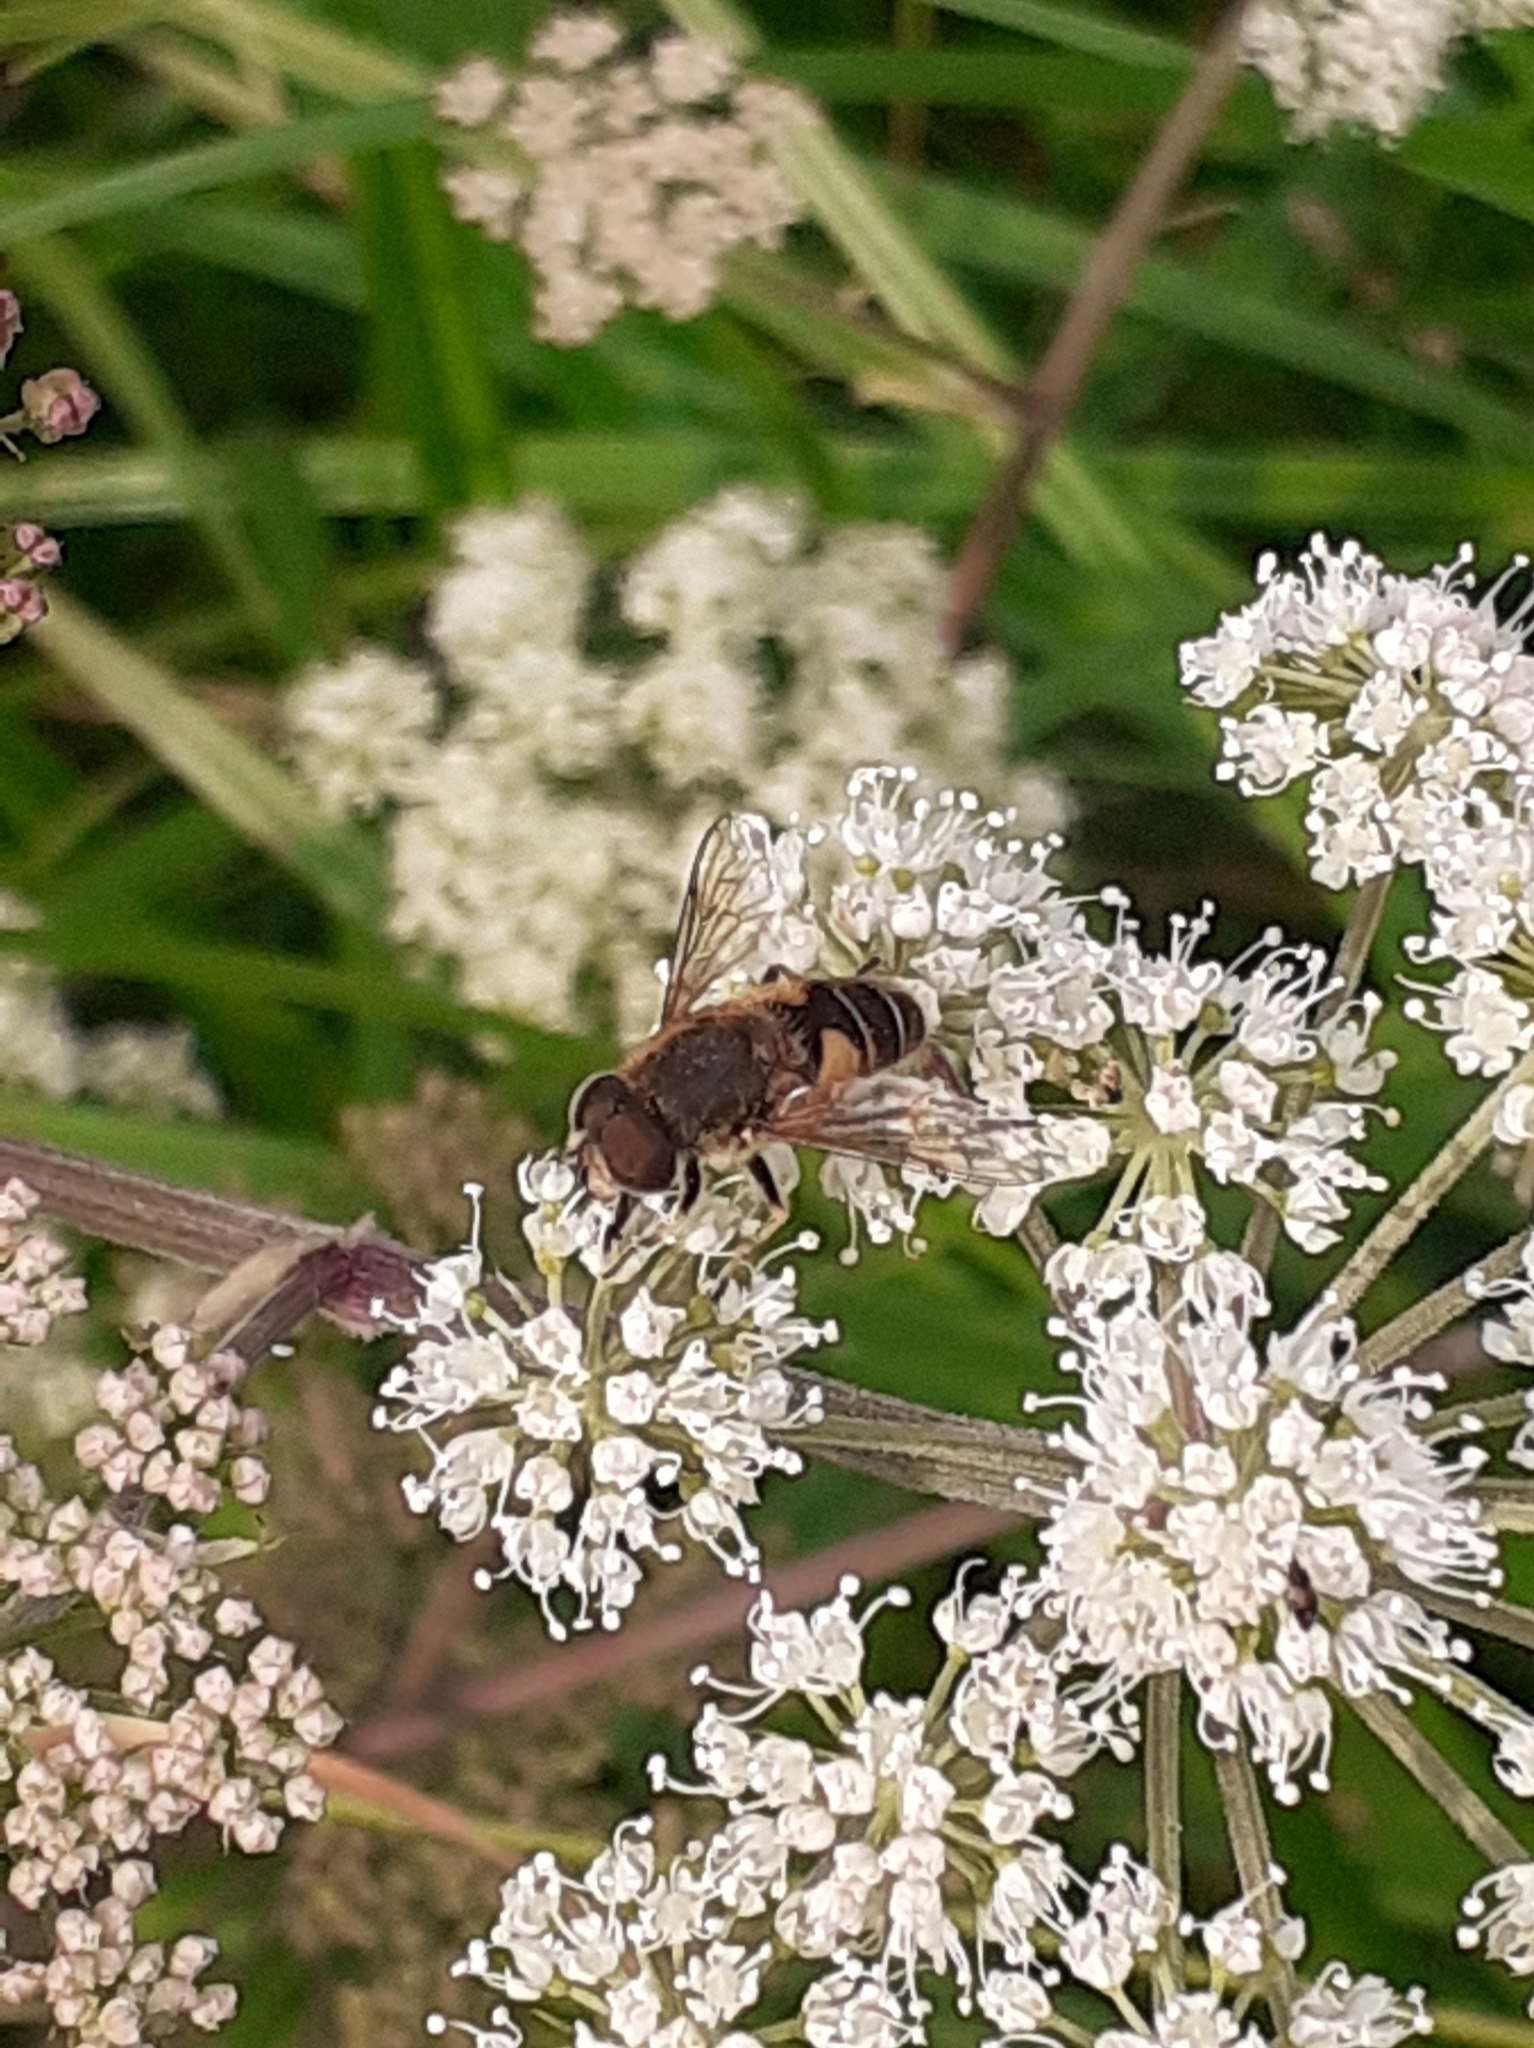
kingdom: Animalia
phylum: Arthropoda
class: Insecta
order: Diptera
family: Syrphidae
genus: Eoseristalis
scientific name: Eoseristalis
